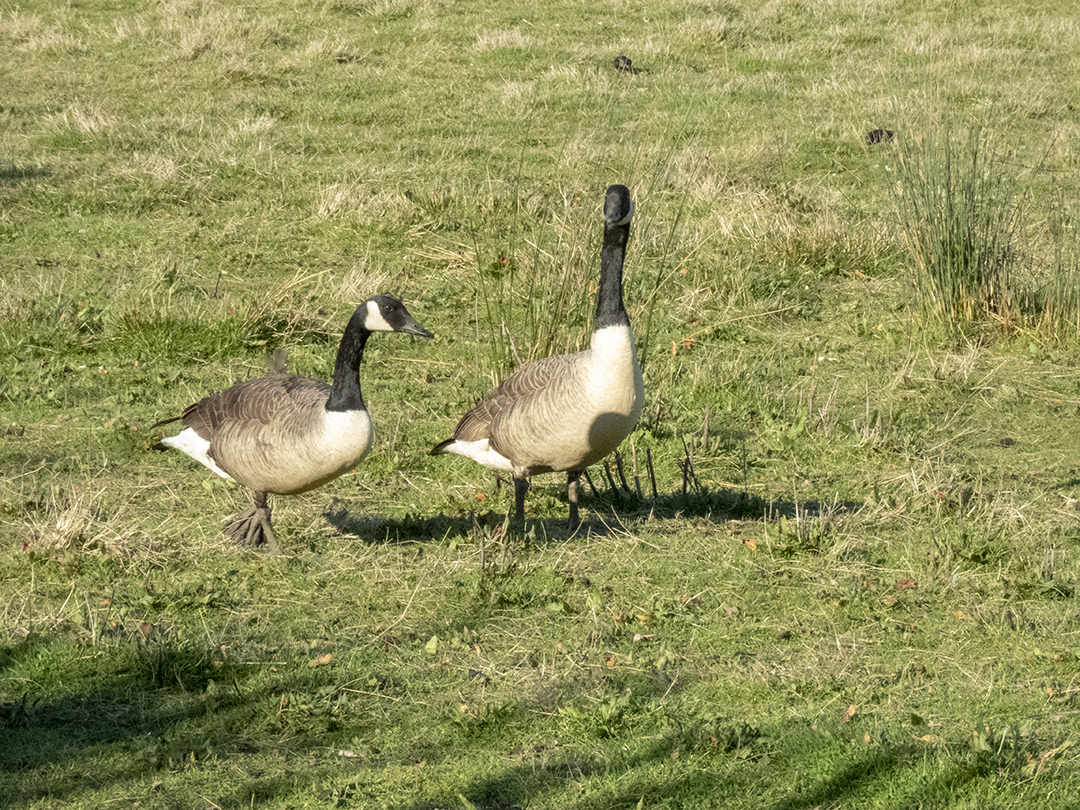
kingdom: Animalia
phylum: Chordata
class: Aves
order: Anseriformes
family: Anatidae
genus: Branta
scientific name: Branta canadensis
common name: Canada goose
